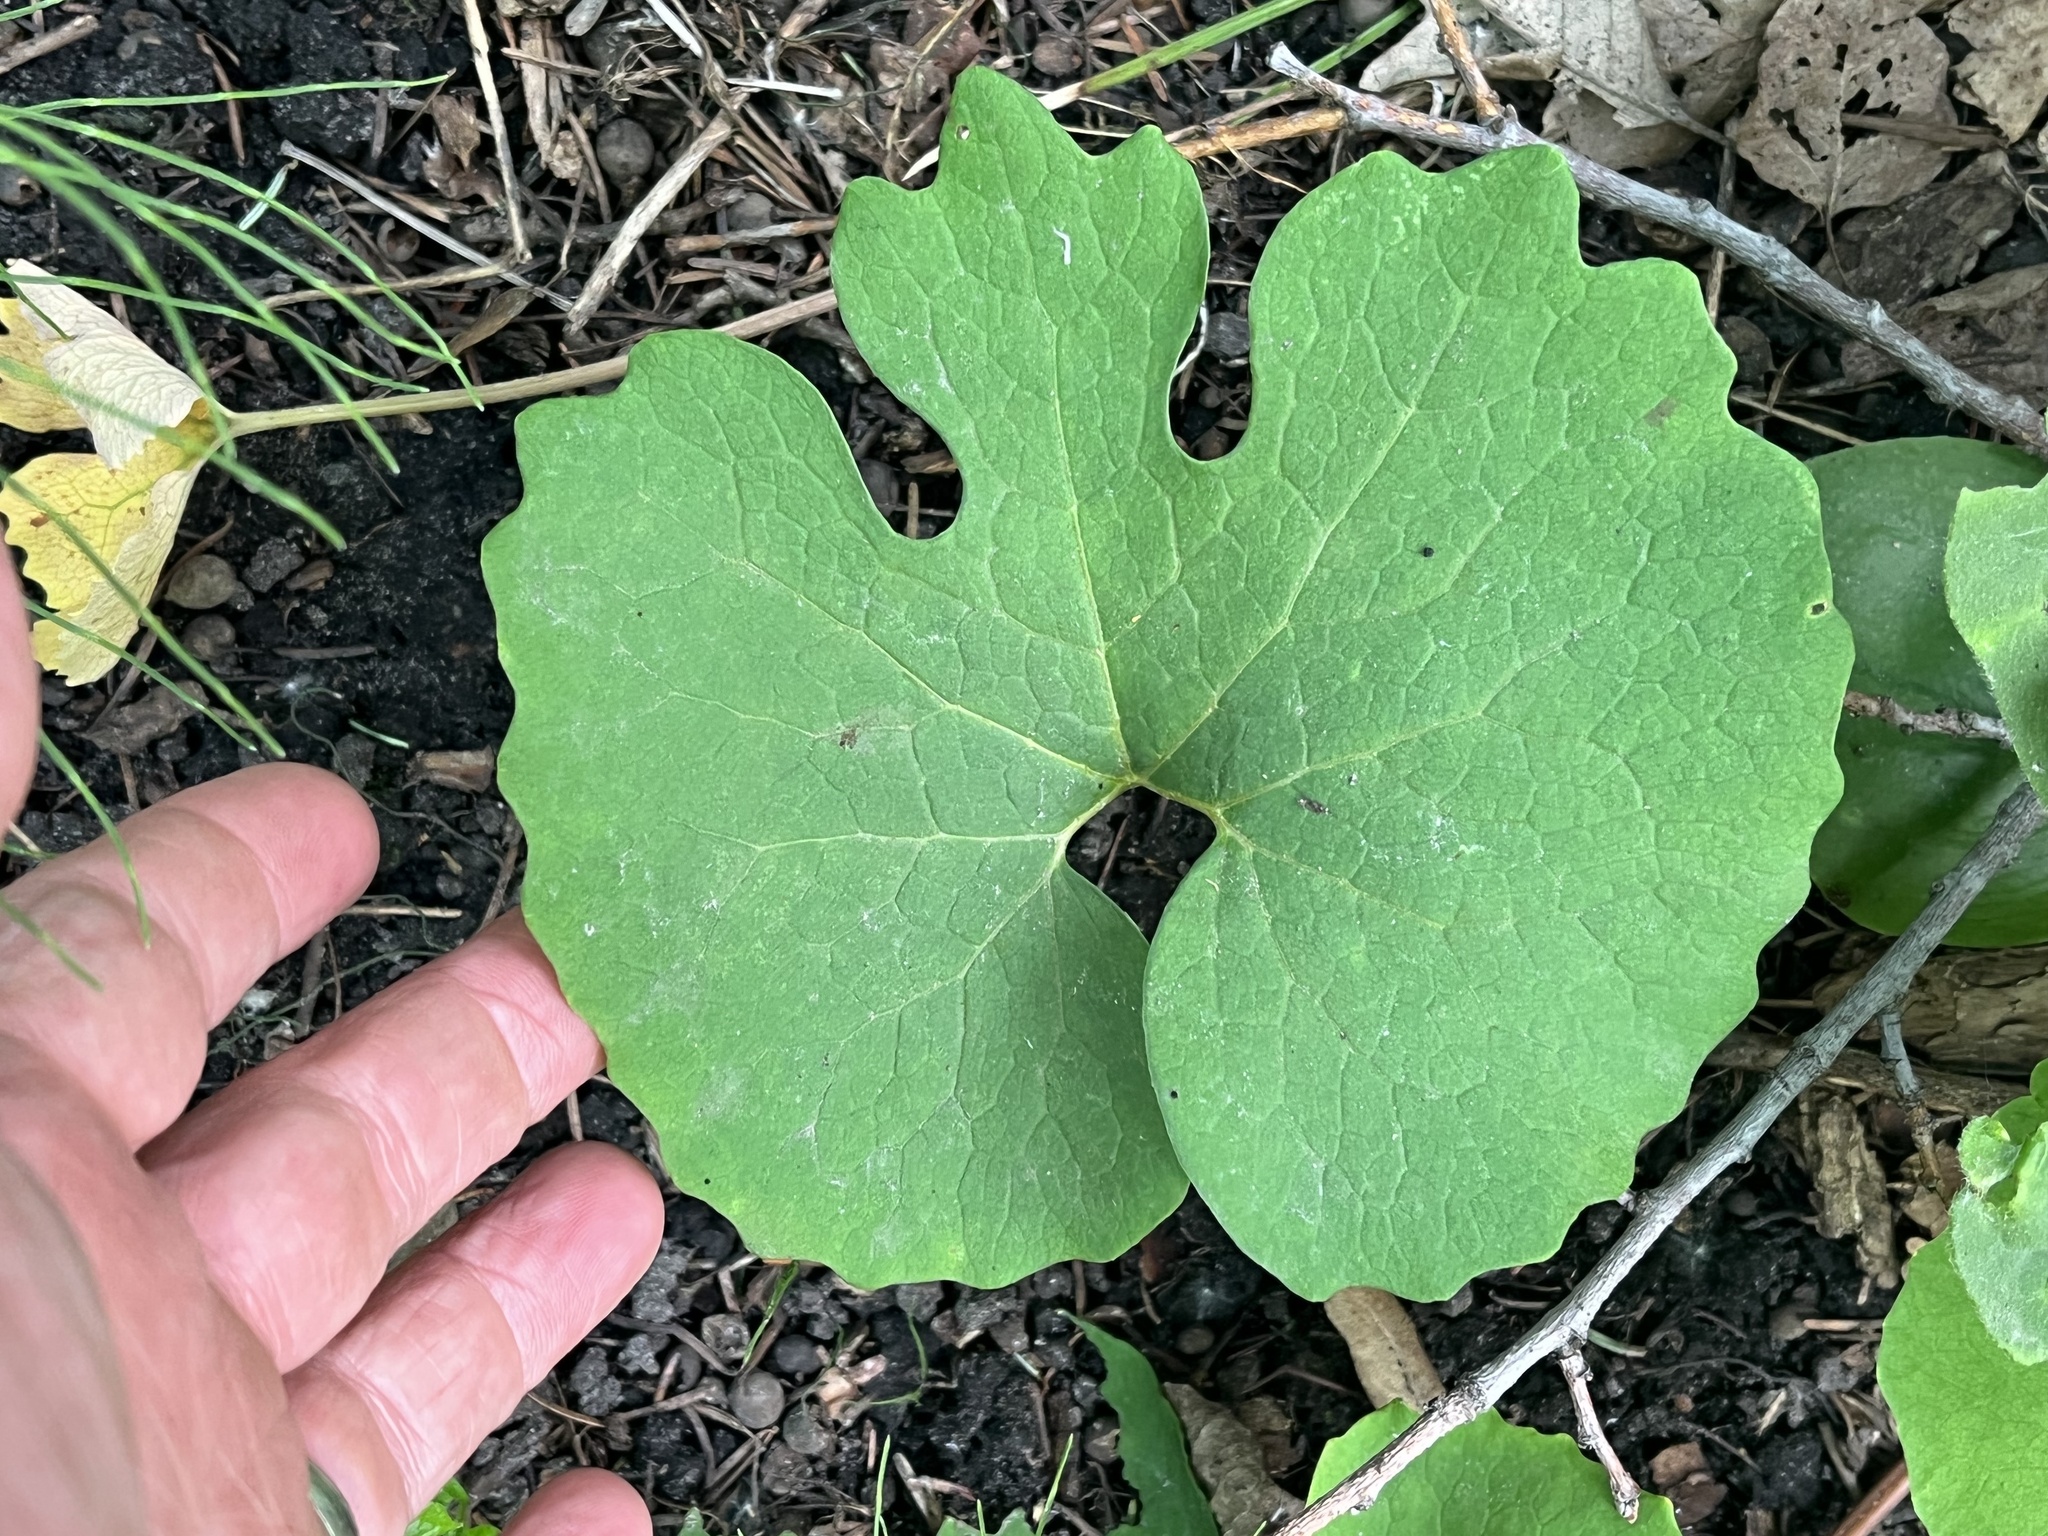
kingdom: Plantae
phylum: Tracheophyta
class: Magnoliopsida
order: Ranunculales
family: Papaveraceae
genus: Sanguinaria
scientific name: Sanguinaria canadensis
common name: Bloodroot
